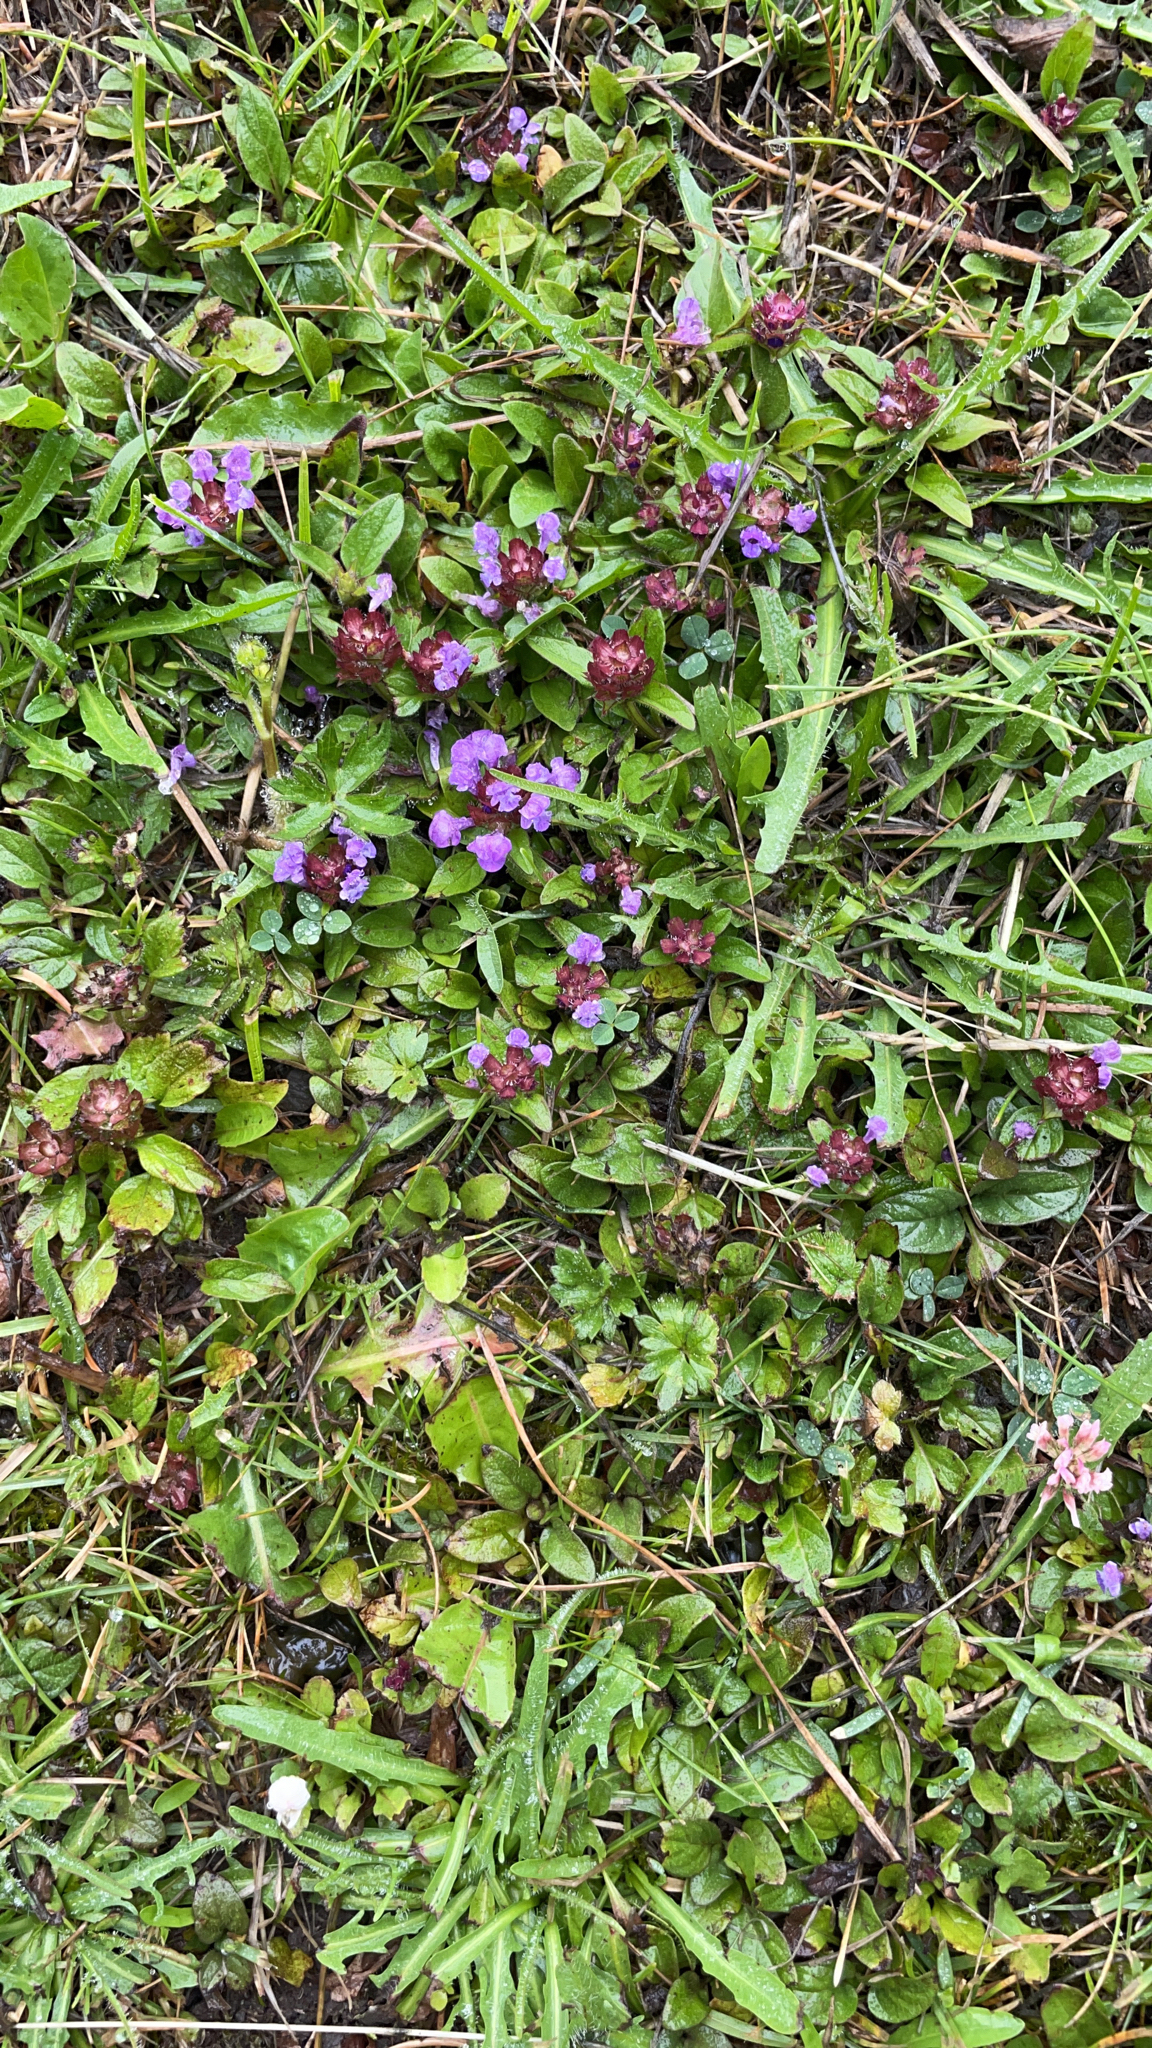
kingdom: Plantae
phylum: Tracheophyta
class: Magnoliopsida
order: Lamiales
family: Lamiaceae
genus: Prunella
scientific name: Prunella vulgaris
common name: Heal-all
